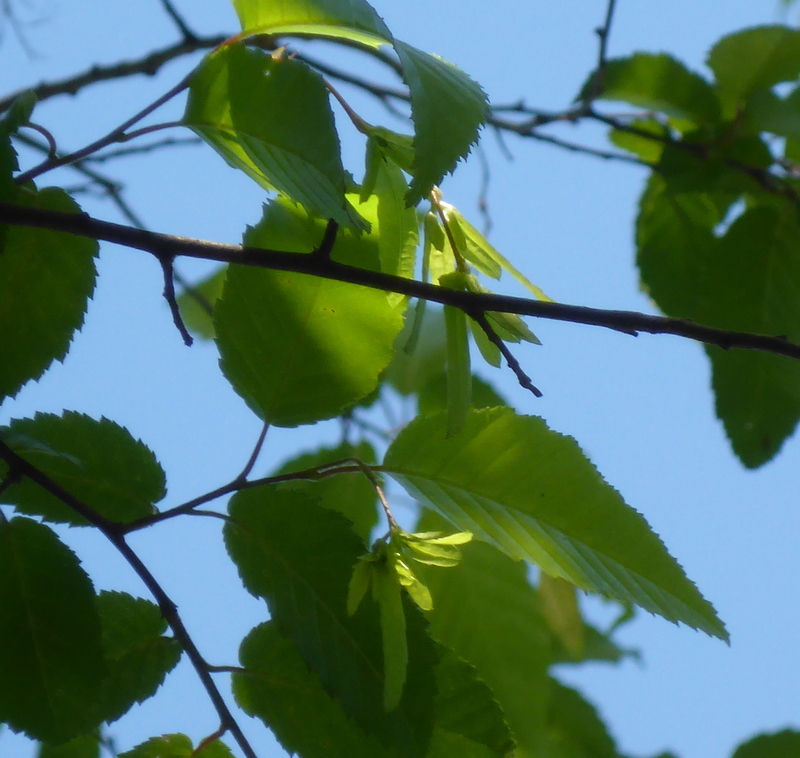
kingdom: Plantae
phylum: Tracheophyta
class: Magnoliopsida
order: Fagales
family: Betulaceae
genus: Carpinus
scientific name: Carpinus caroliniana
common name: American hornbeam
